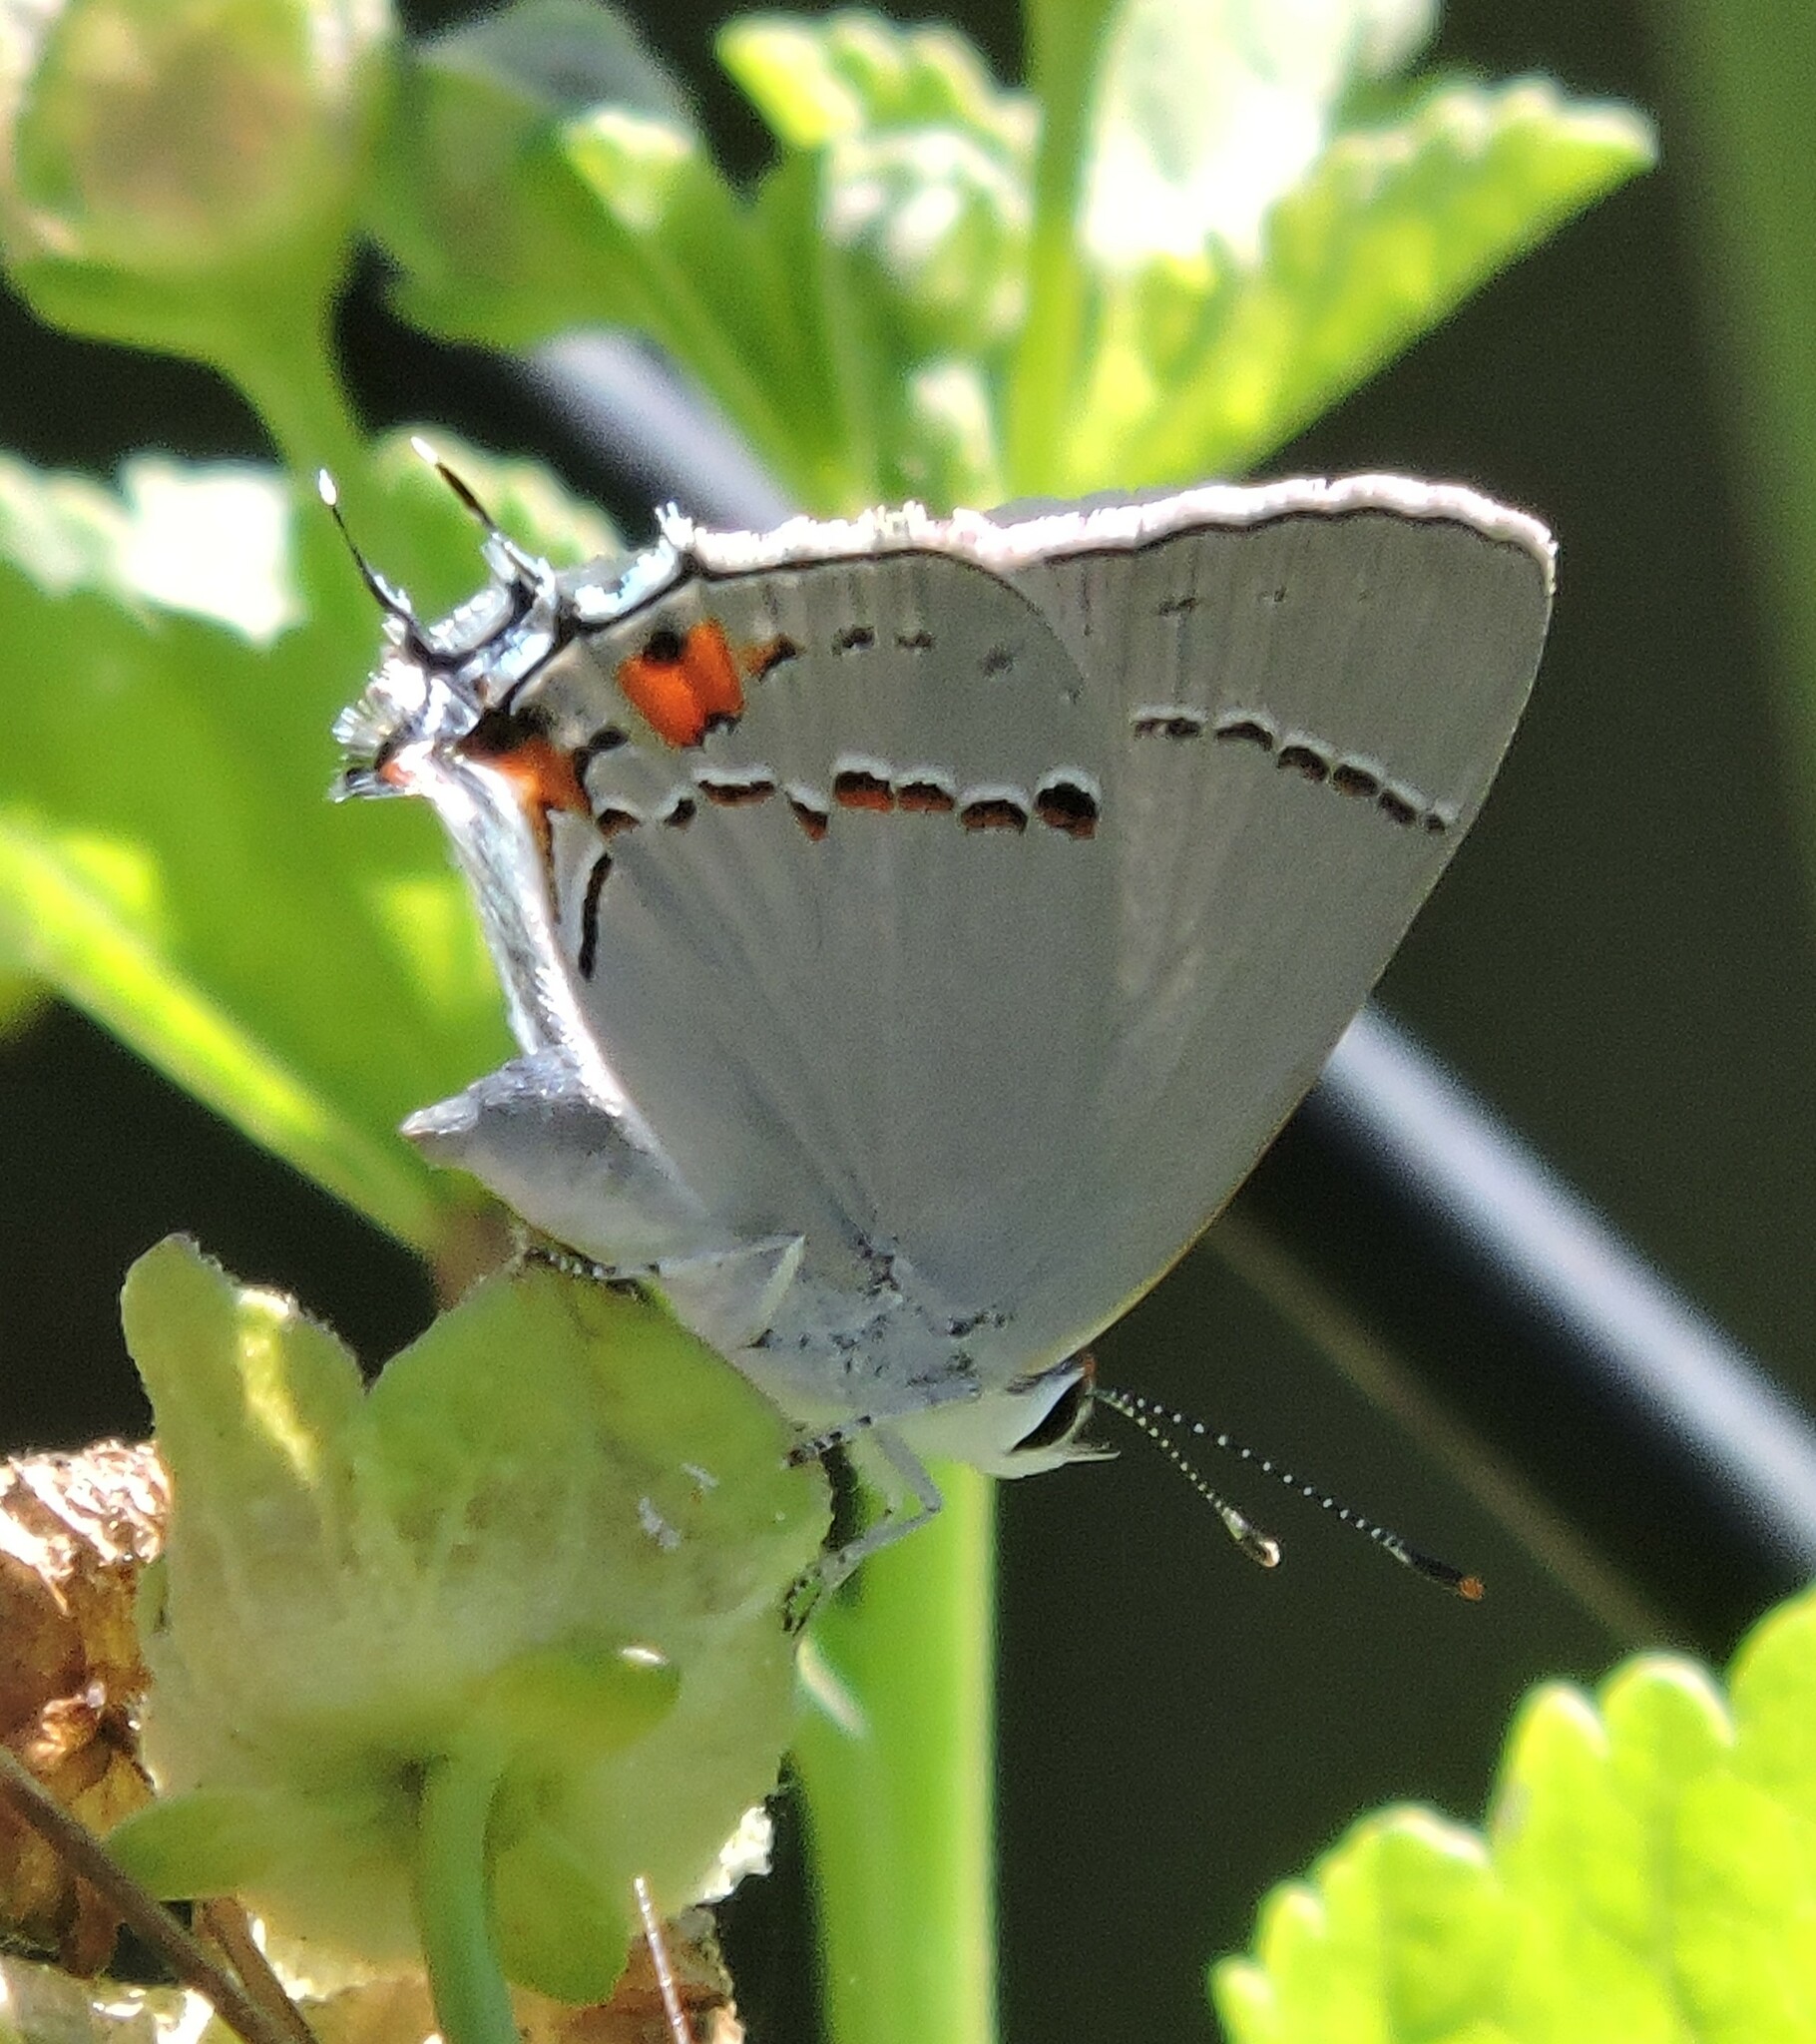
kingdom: Animalia
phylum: Arthropoda
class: Insecta
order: Lepidoptera
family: Lycaenidae
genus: Strymon
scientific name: Strymon melinus
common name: Gray hairstreak
